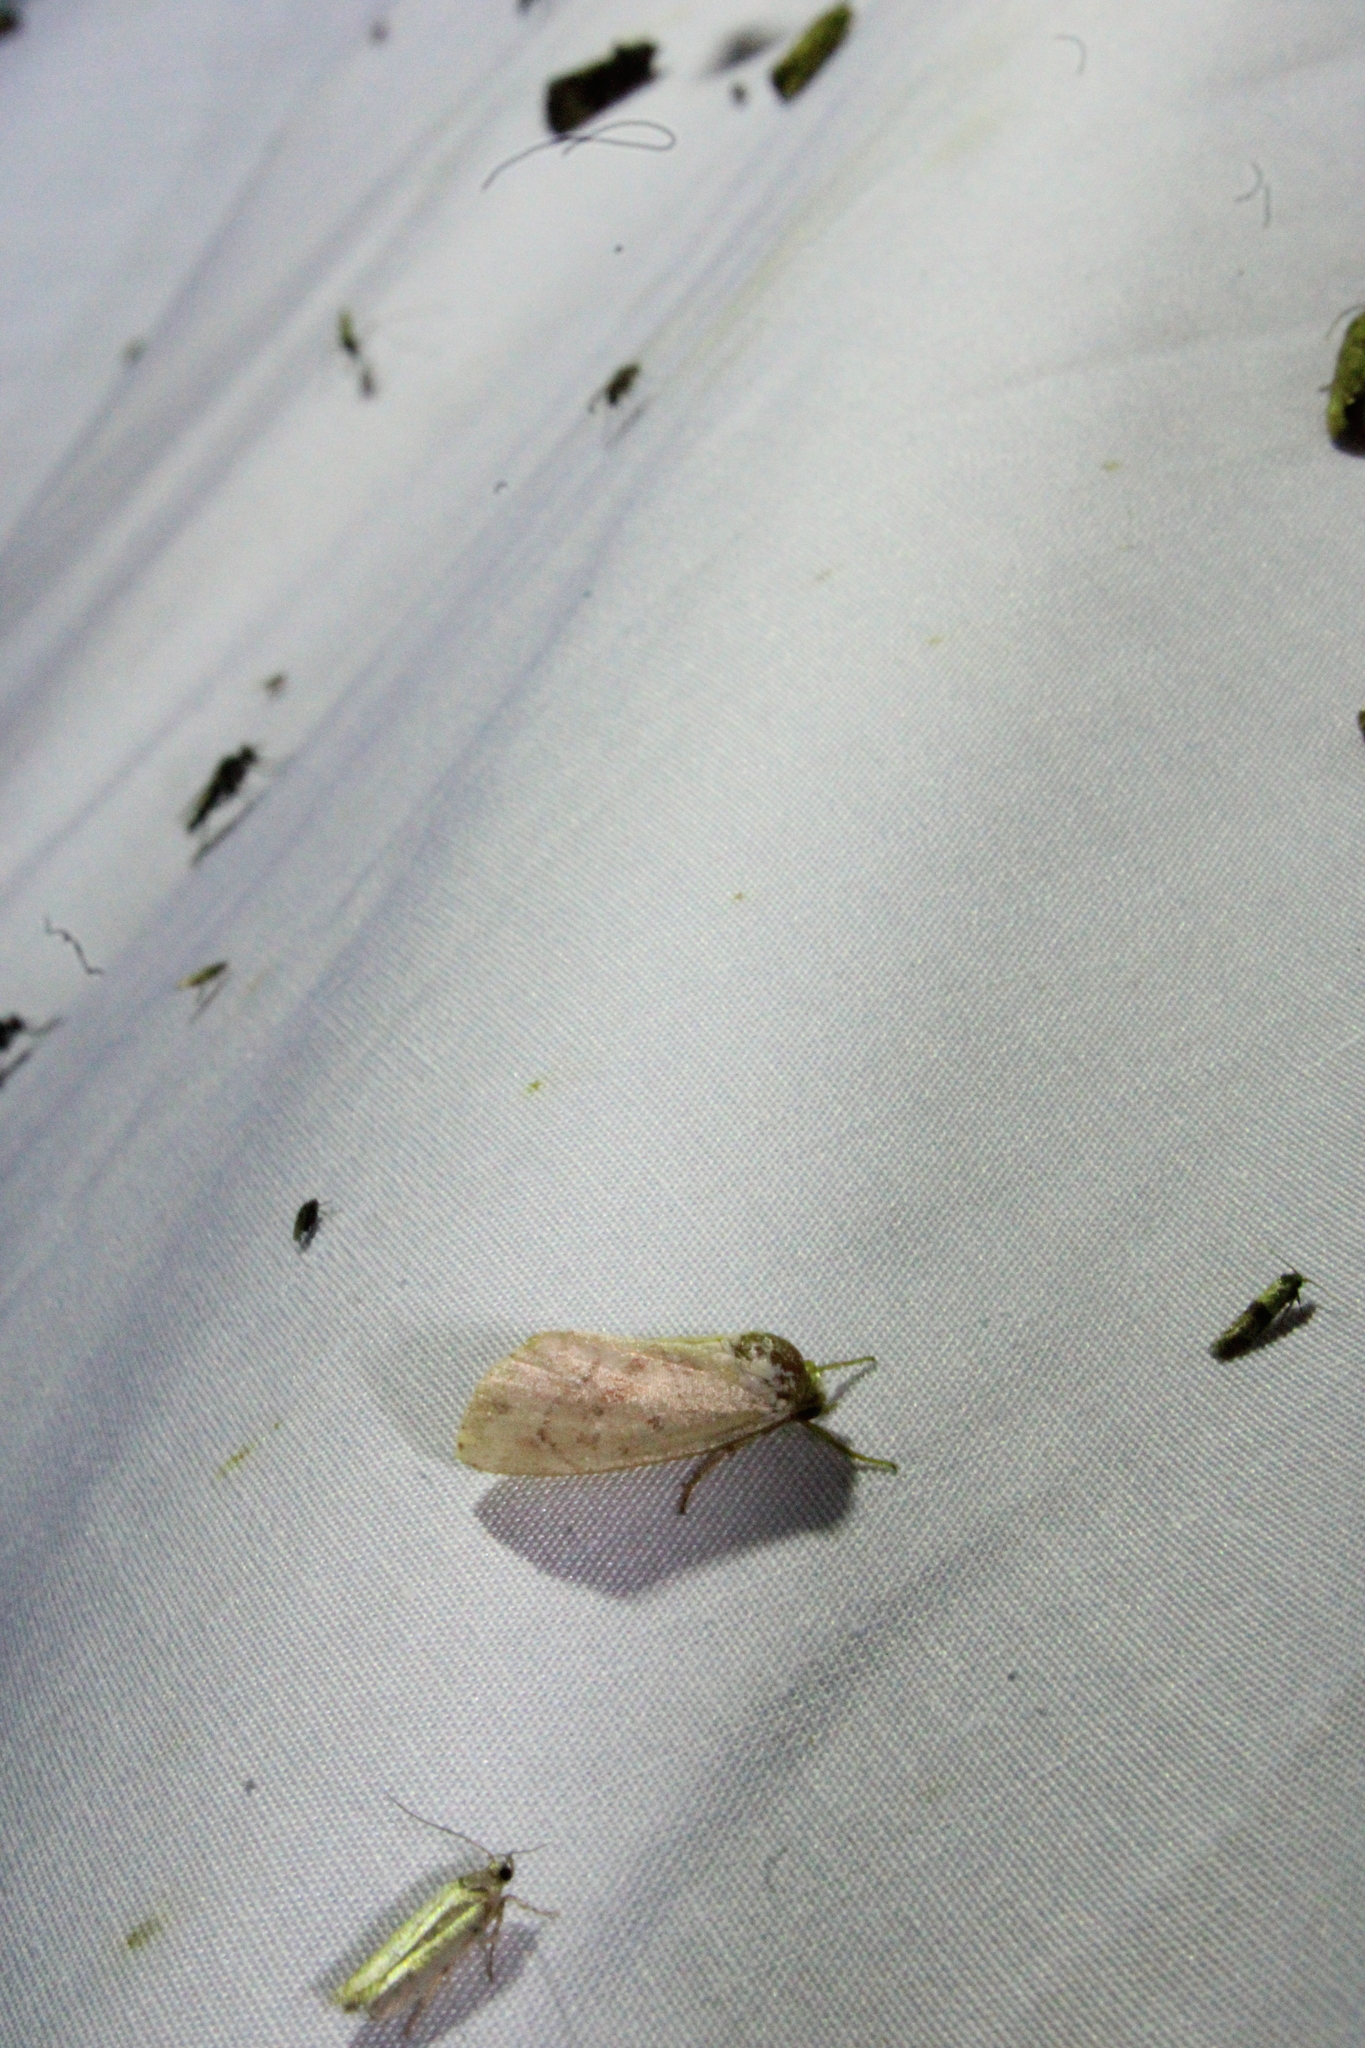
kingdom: Animalia
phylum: Arthropoda
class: Insecta
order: Lepidoptera
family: Noctuidae
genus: Cosmia
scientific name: Cosmia calami
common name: American dun-bar moth
